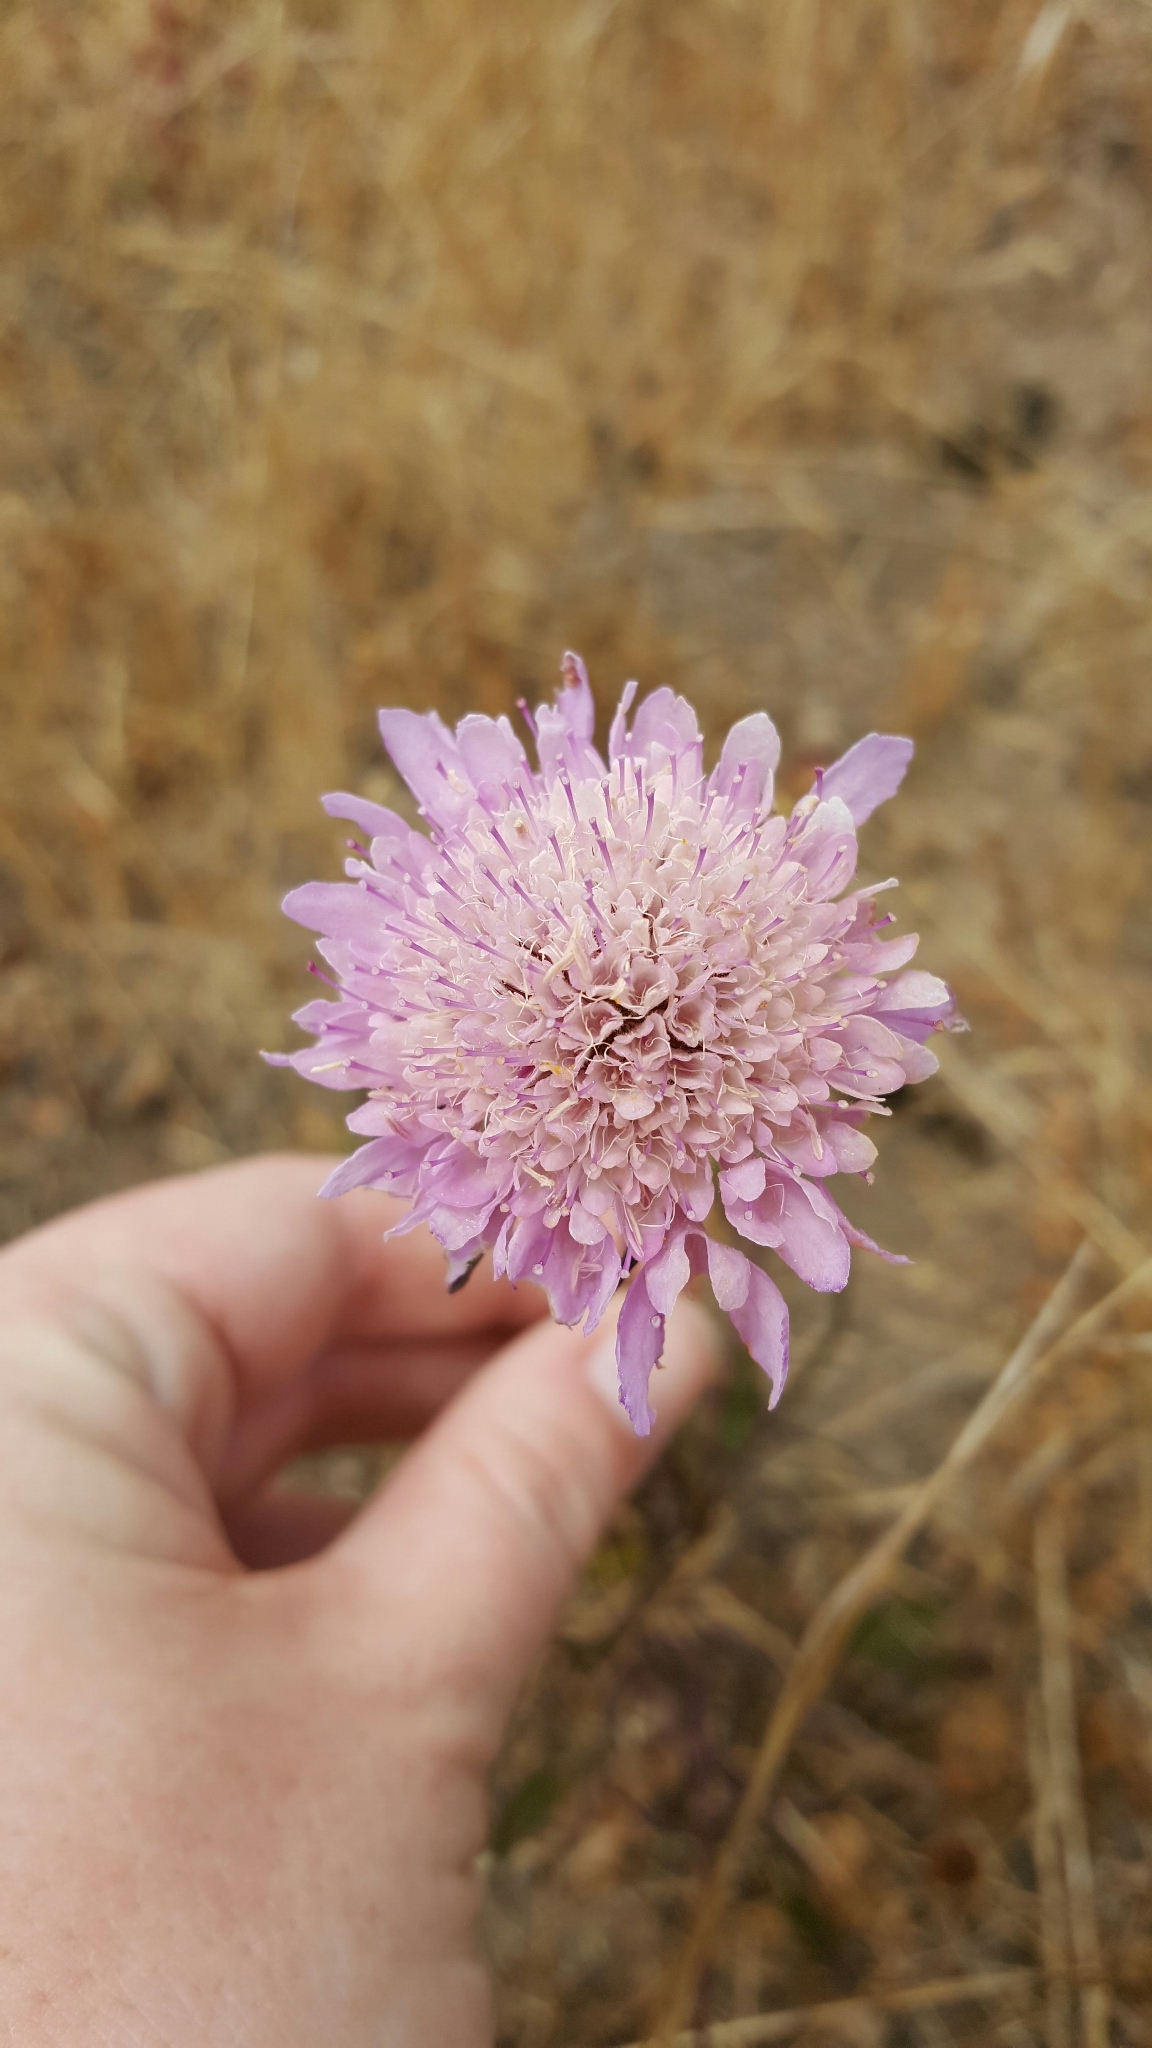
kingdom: Plantae
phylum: Tracheophyta
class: Magnoliopsida
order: Dipsacales
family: Caprifoliaceae
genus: Sixalix
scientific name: Sixalix atropurpurea
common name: Sweet scabious
